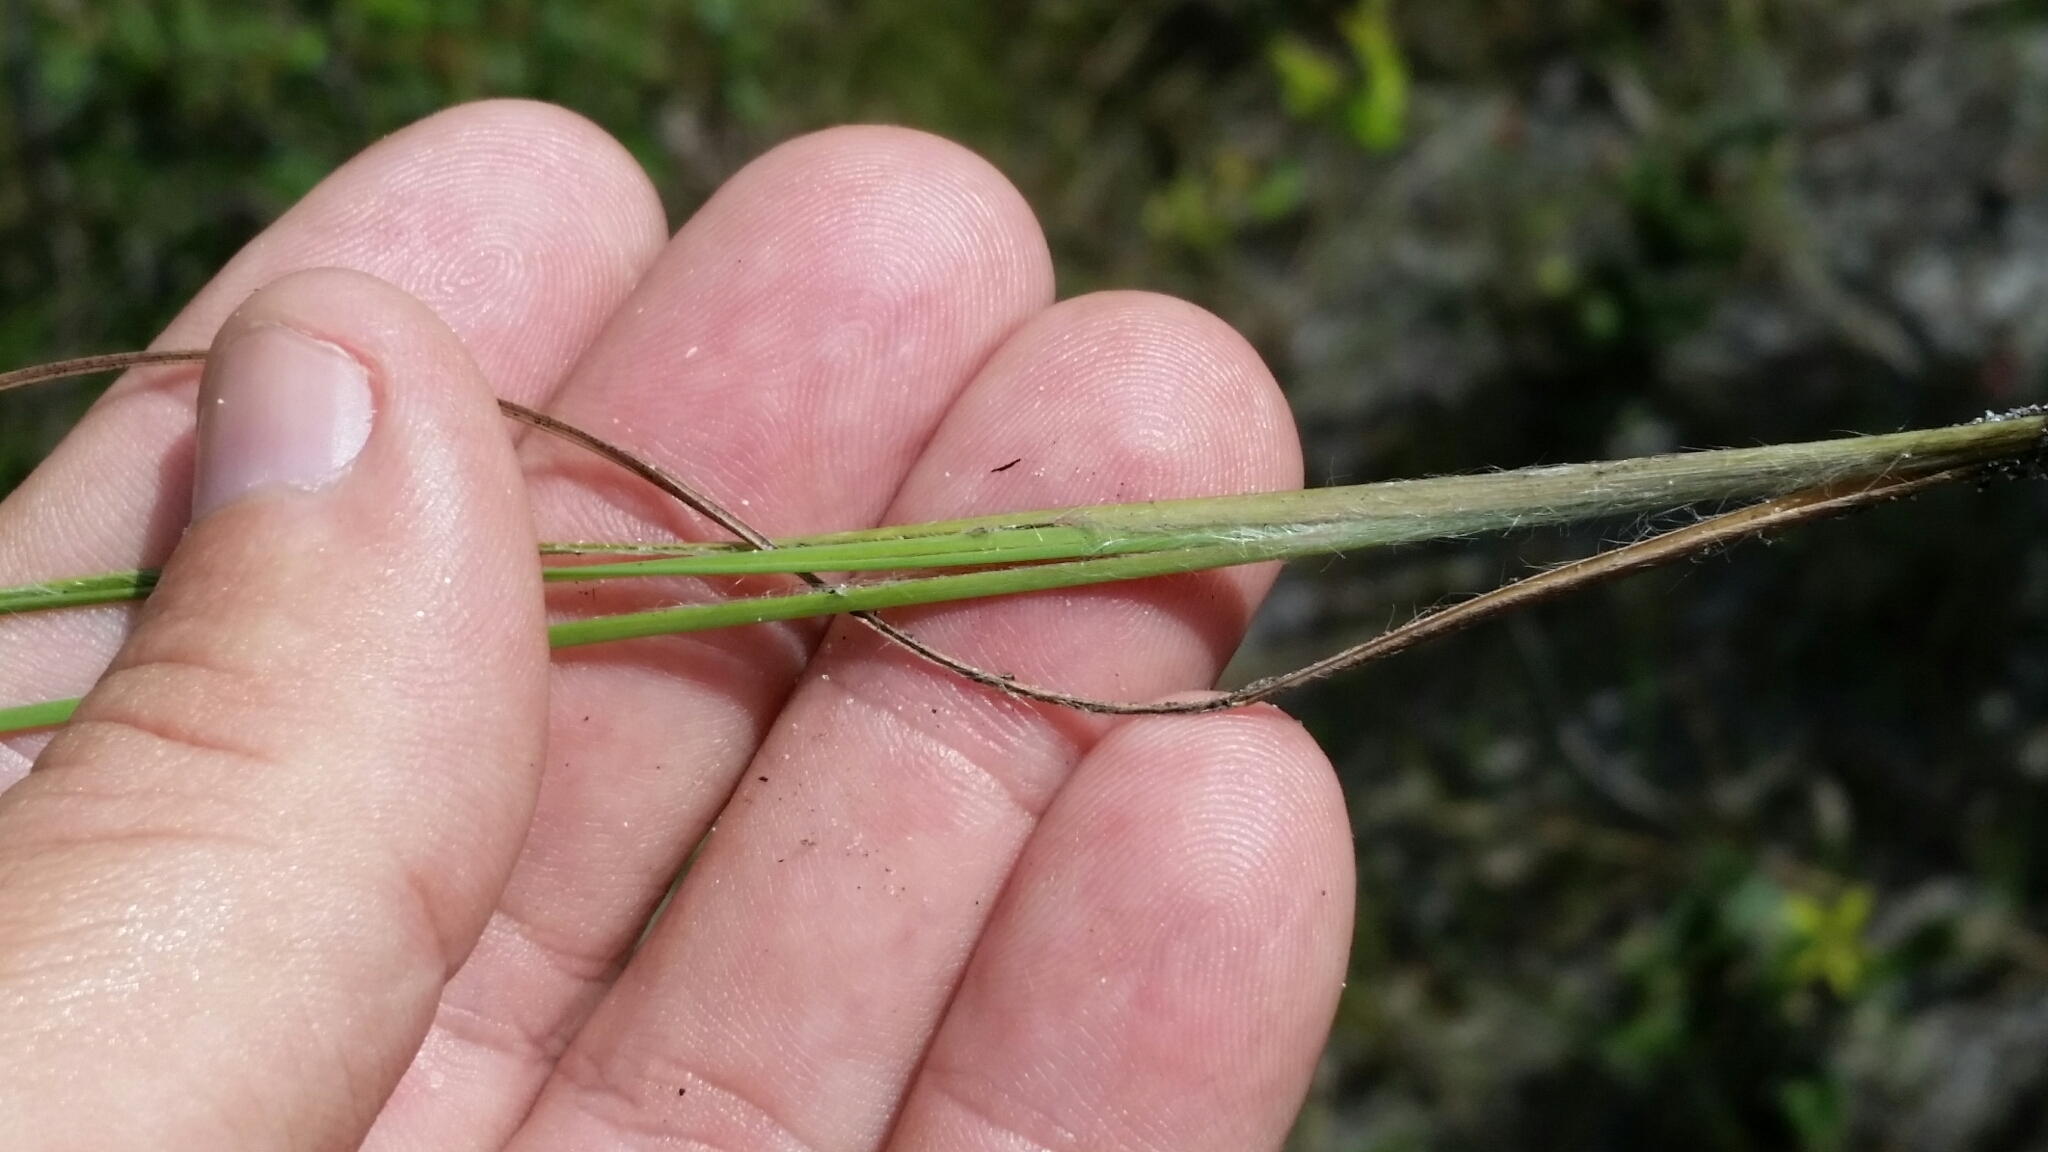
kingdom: Plantae
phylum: Tracheophyta
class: Liliopsida
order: Poales
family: Poaceae
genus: Andropogon
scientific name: Andropogon cumulicola
